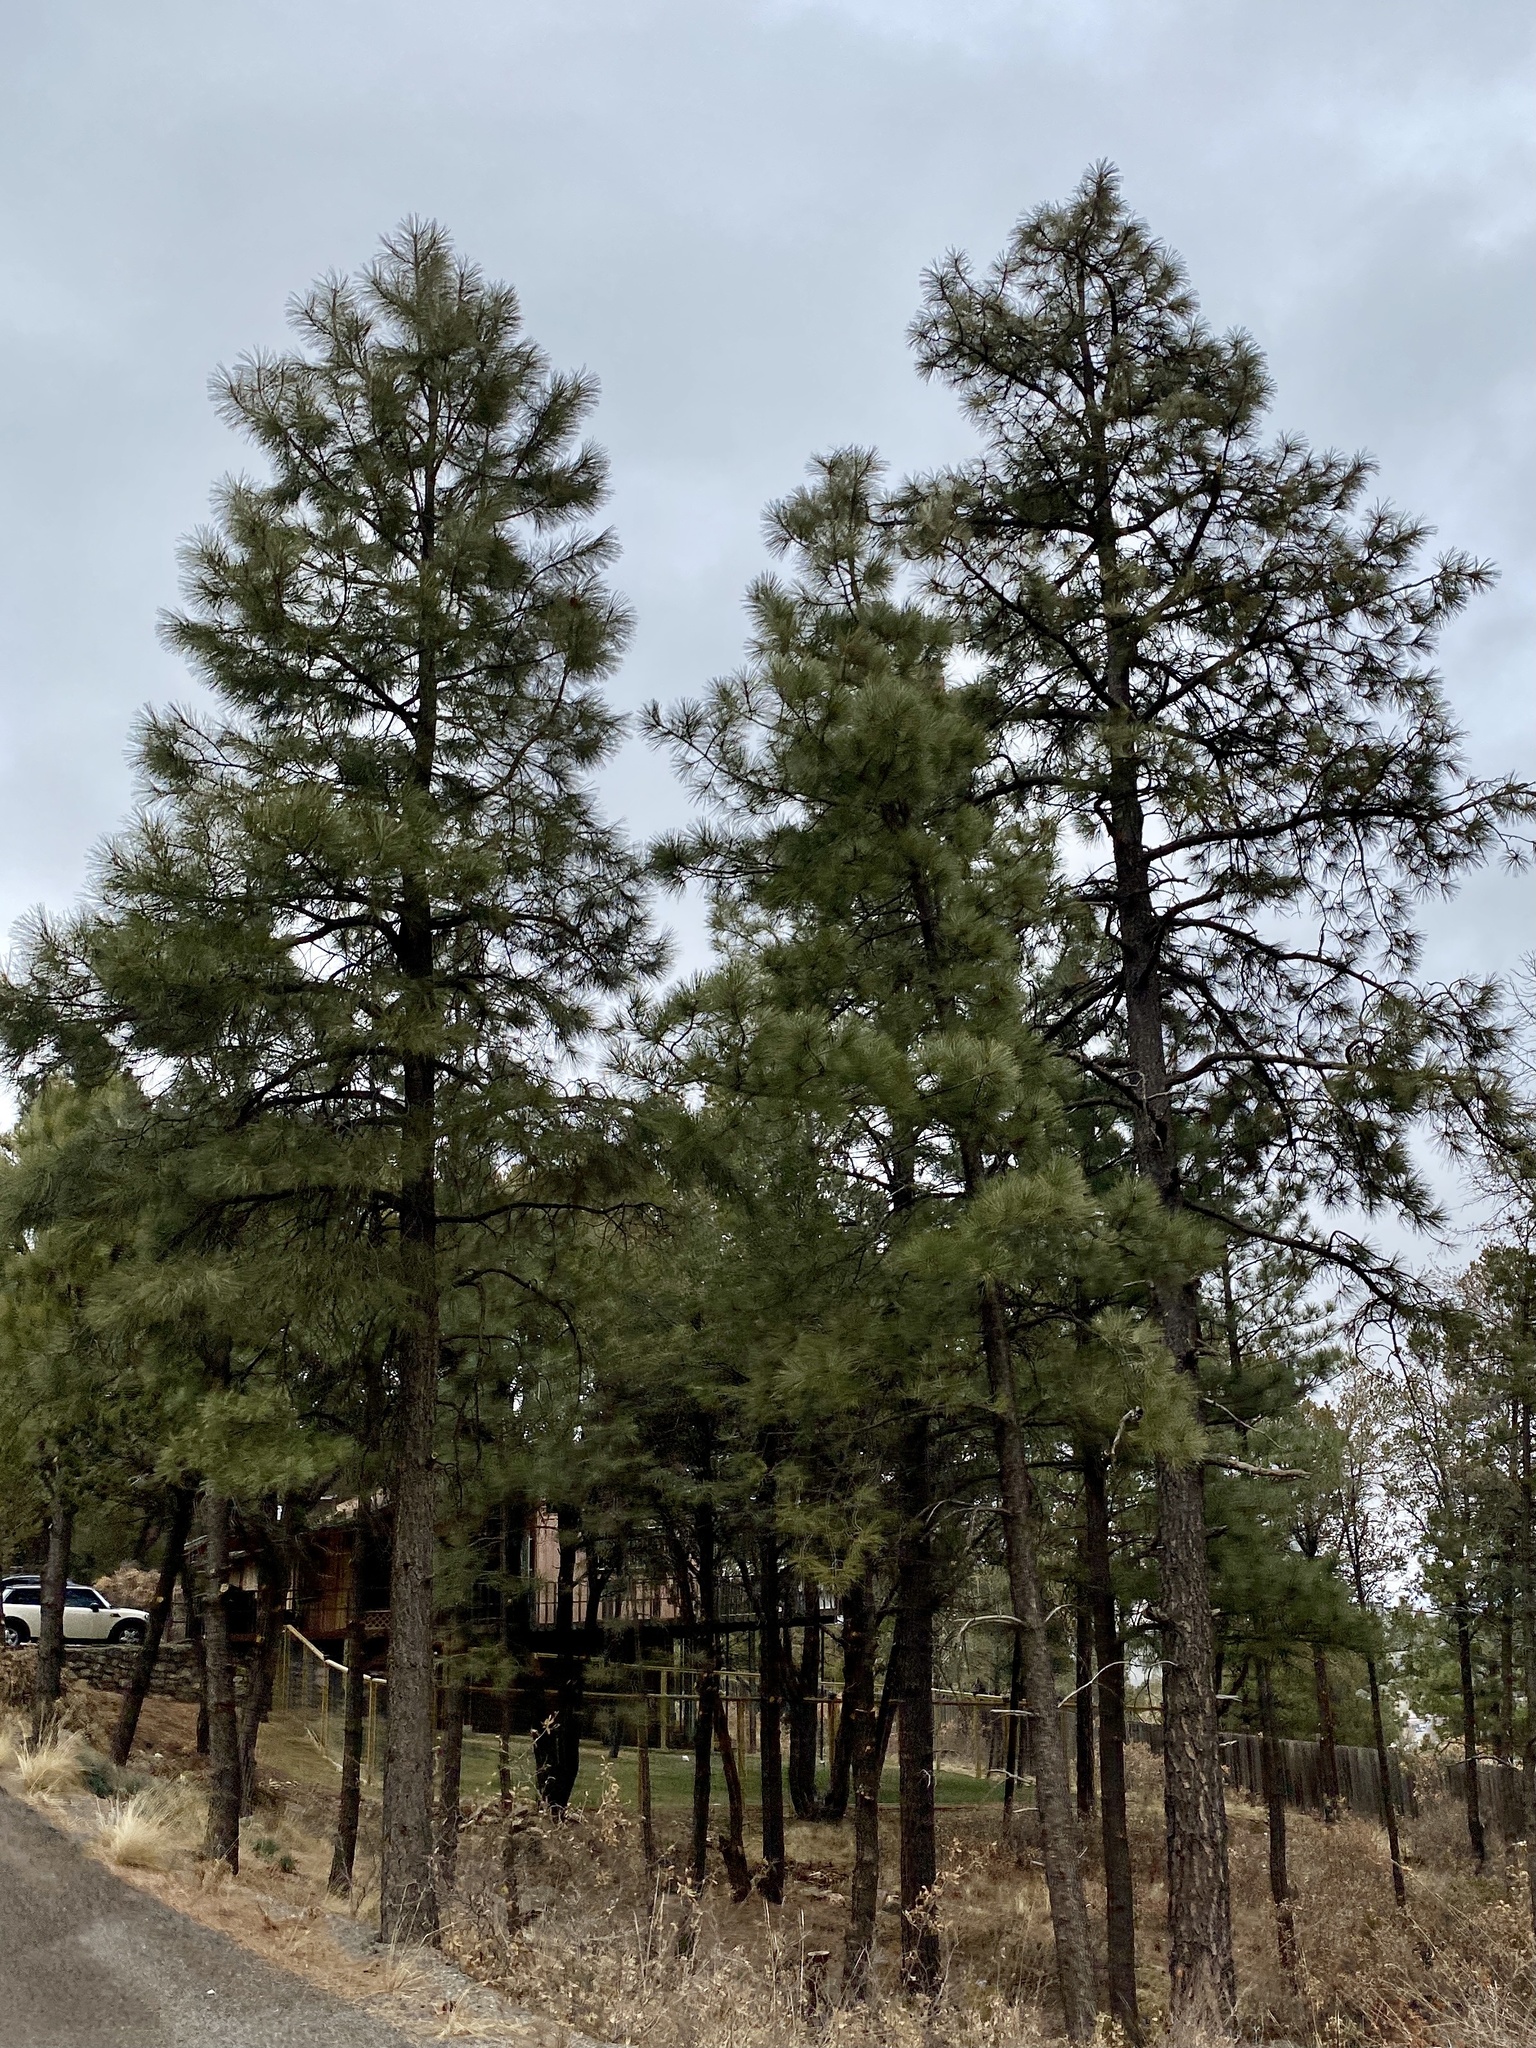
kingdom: Plantae
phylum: Tracheophyta
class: Pinopsida
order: Pinales
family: Pinaceae
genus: Pinus
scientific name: Pinus ponderosa
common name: Western yellow-pine
